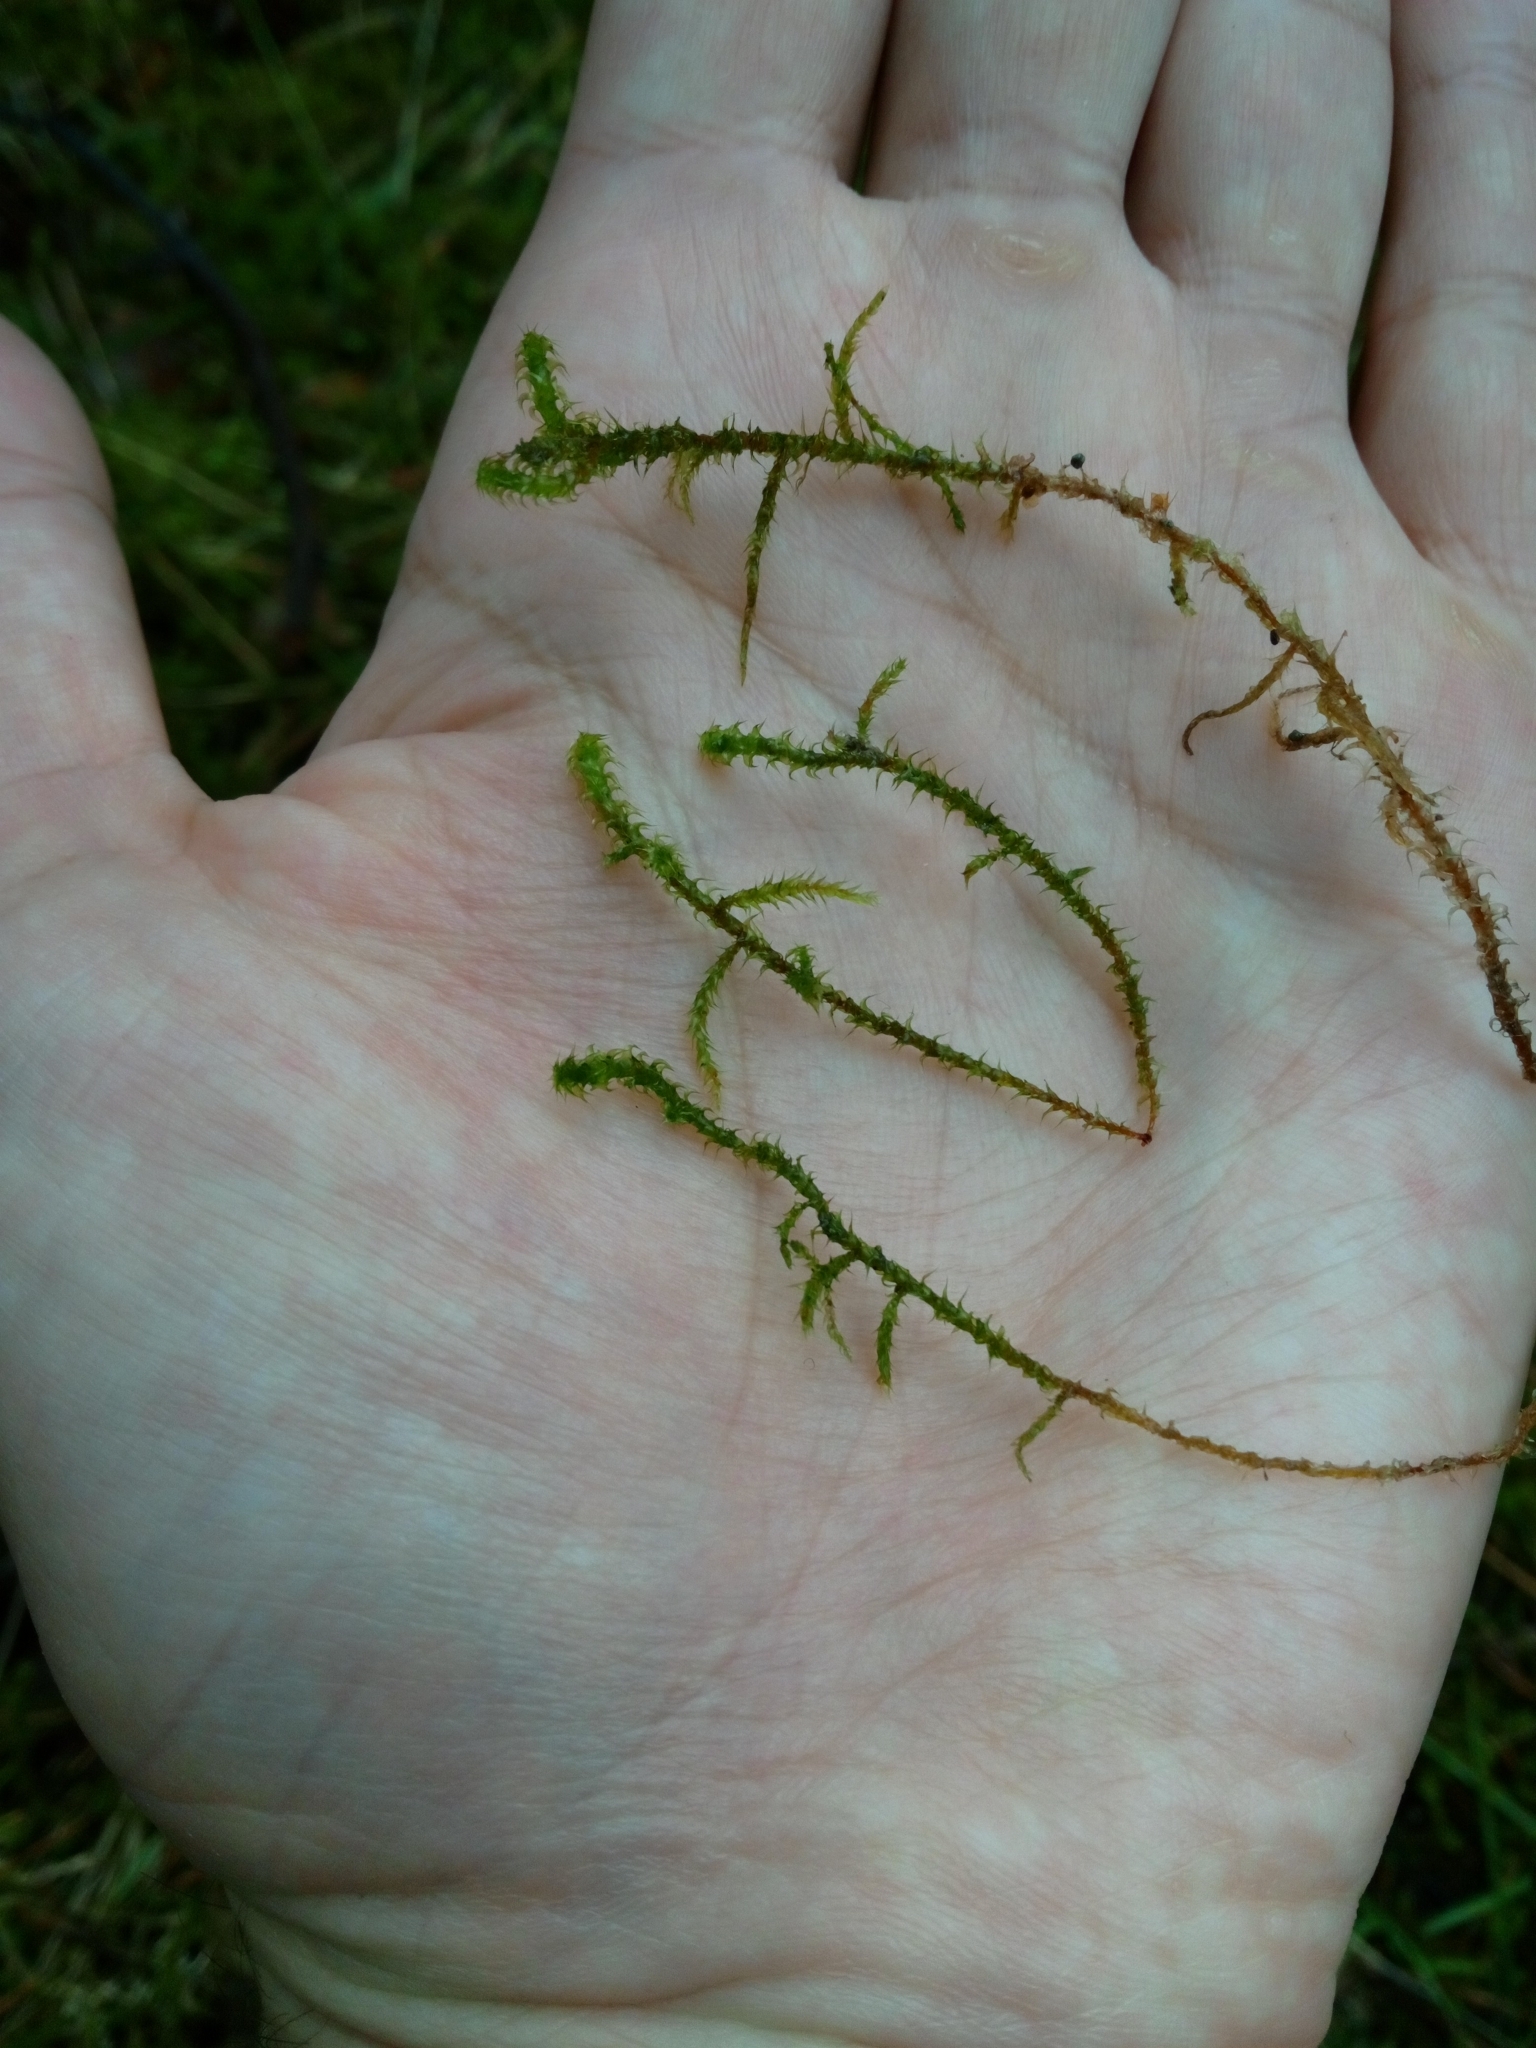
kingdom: Plantae
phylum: Bryophyta
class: Bryopsida
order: Hypnales
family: Hylocomiaceae
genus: Rhytidiadelphus
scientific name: Rhytidiadelphus squarrosus
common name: Springy turf-moss
